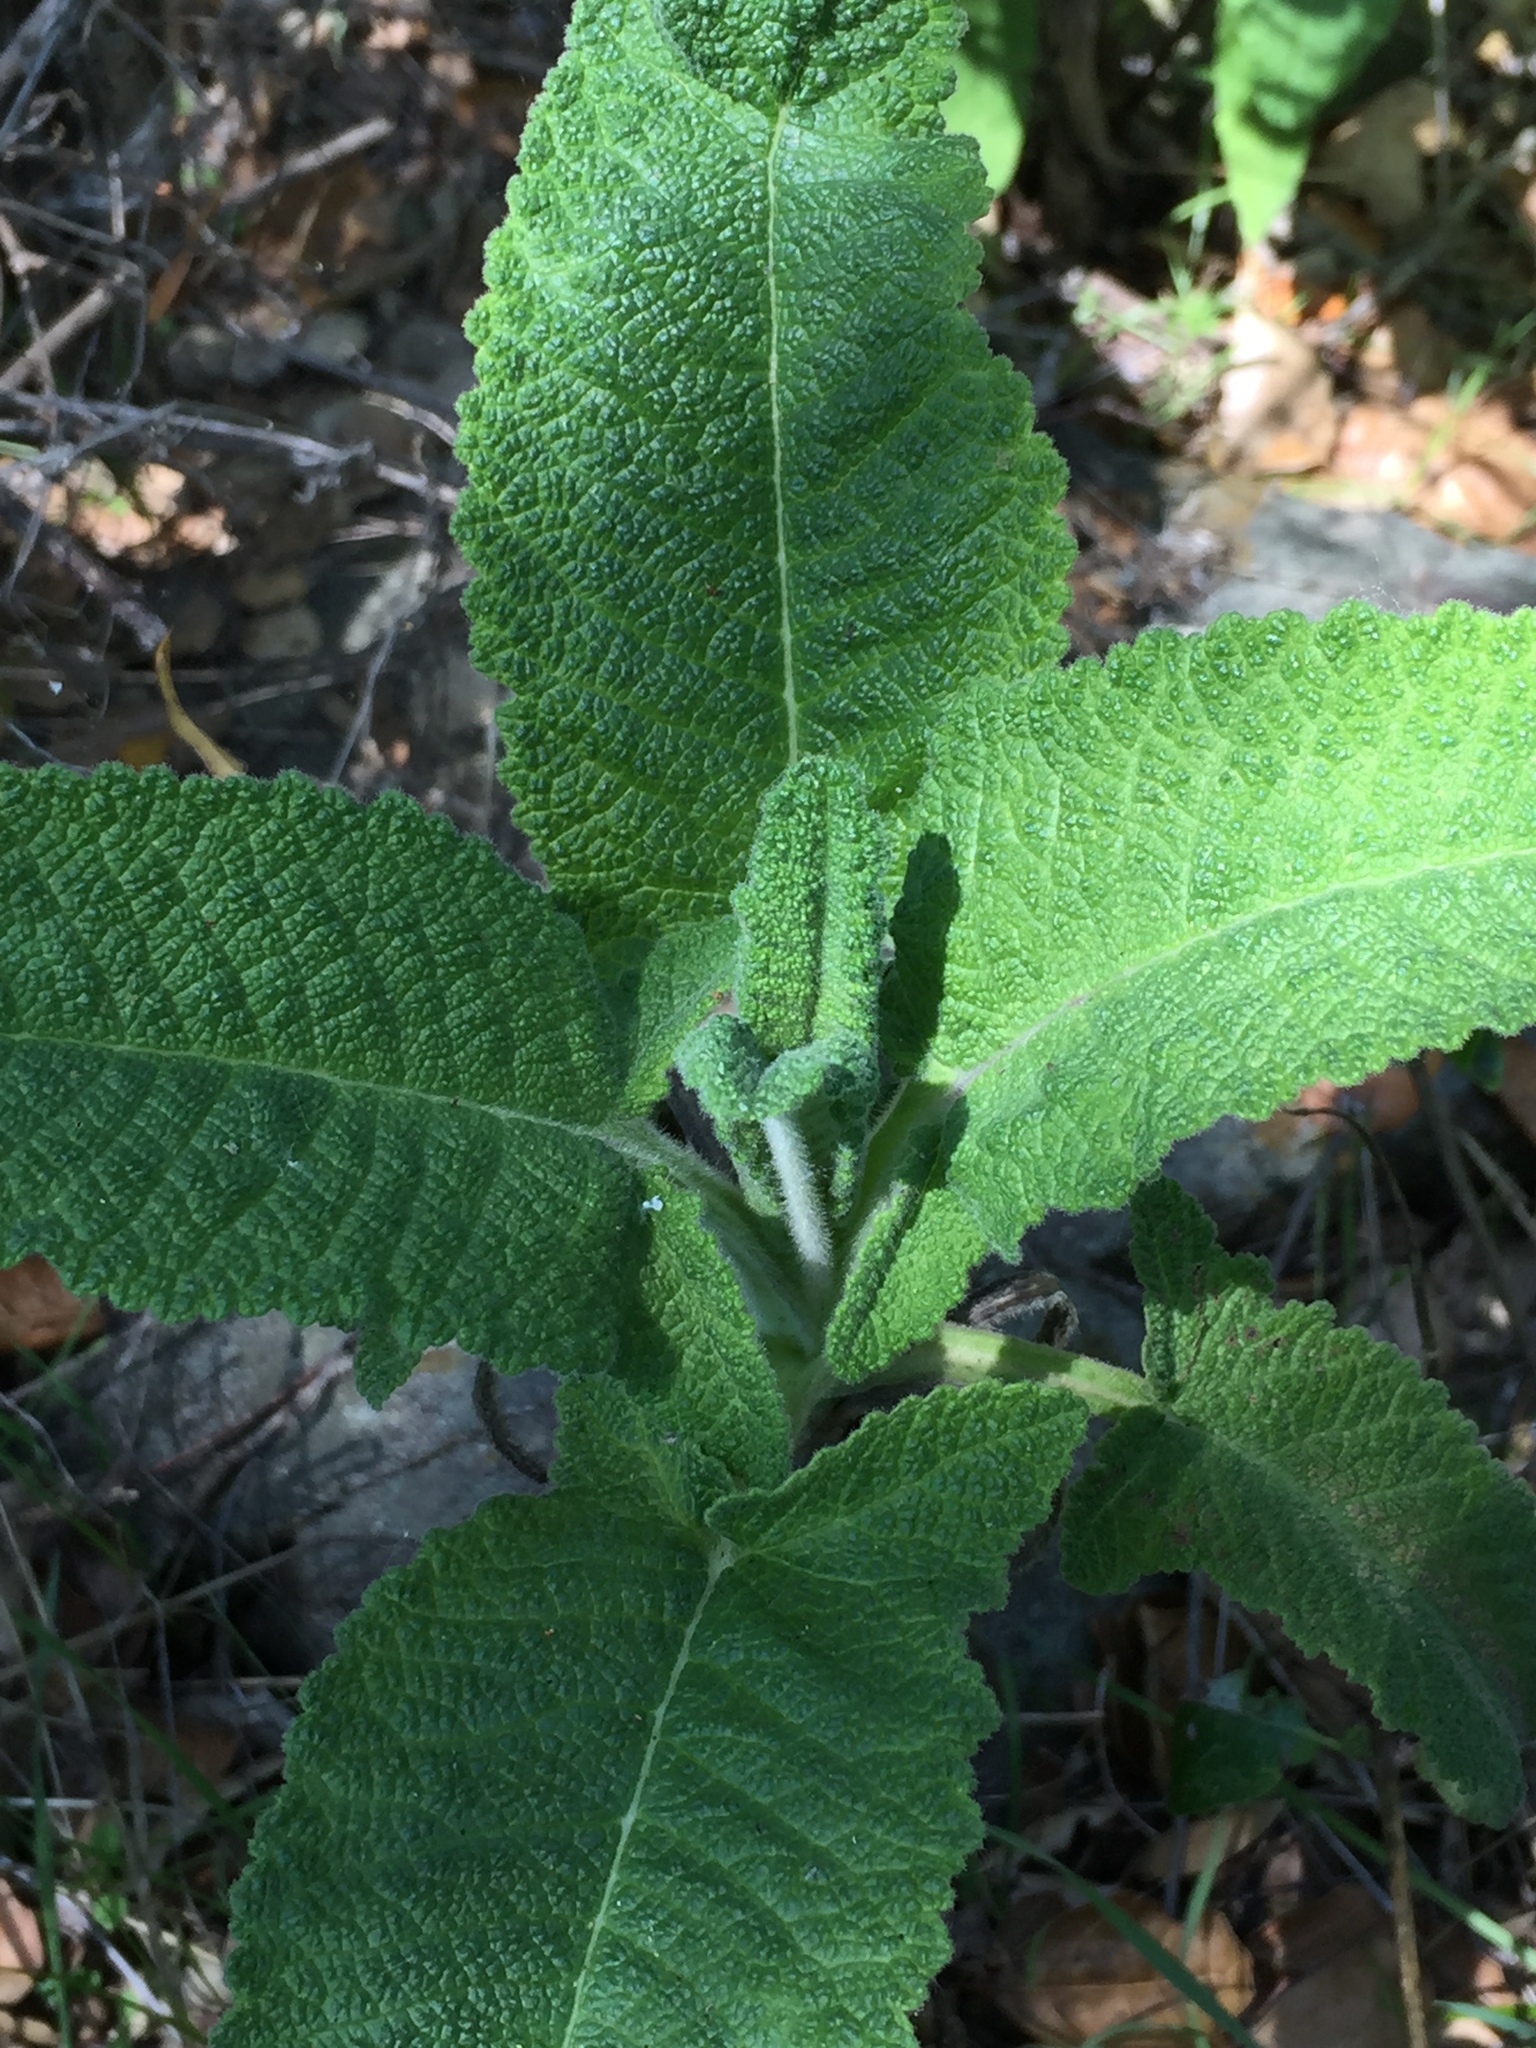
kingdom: Plantae
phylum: Tracheophyta
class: Magnoliopsida
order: Lamiales
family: Lamiaceae
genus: Salvia
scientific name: Salvia spathacea
